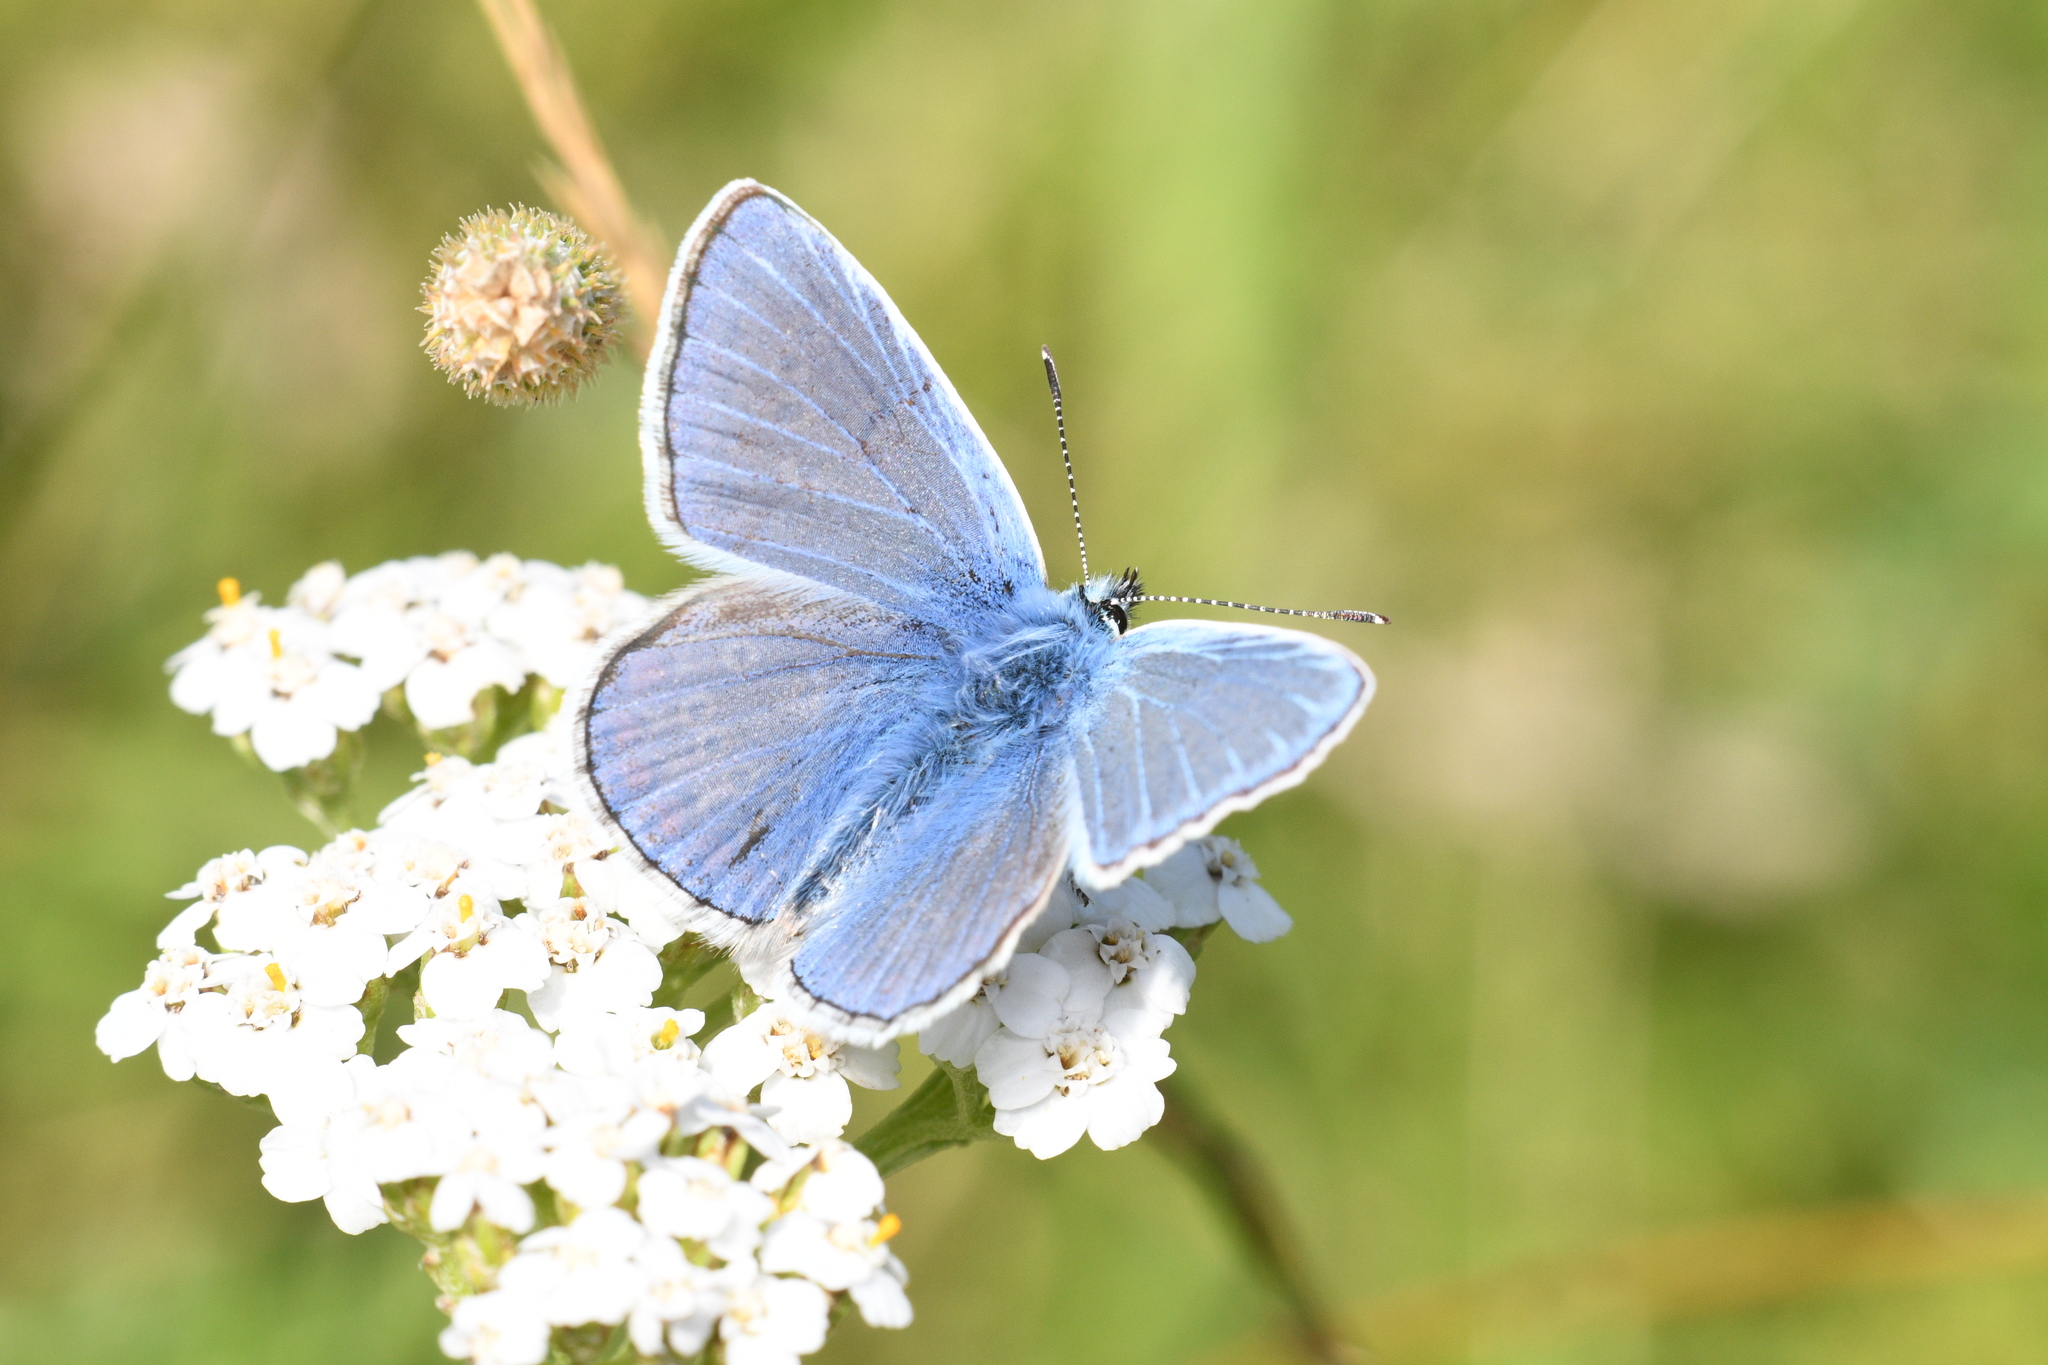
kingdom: Animalia
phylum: Arthropoda
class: Insecta
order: Lepidoptera
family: Lycaenidae
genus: Polyommatus
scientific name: Polyommatus icarus
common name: Common blue
